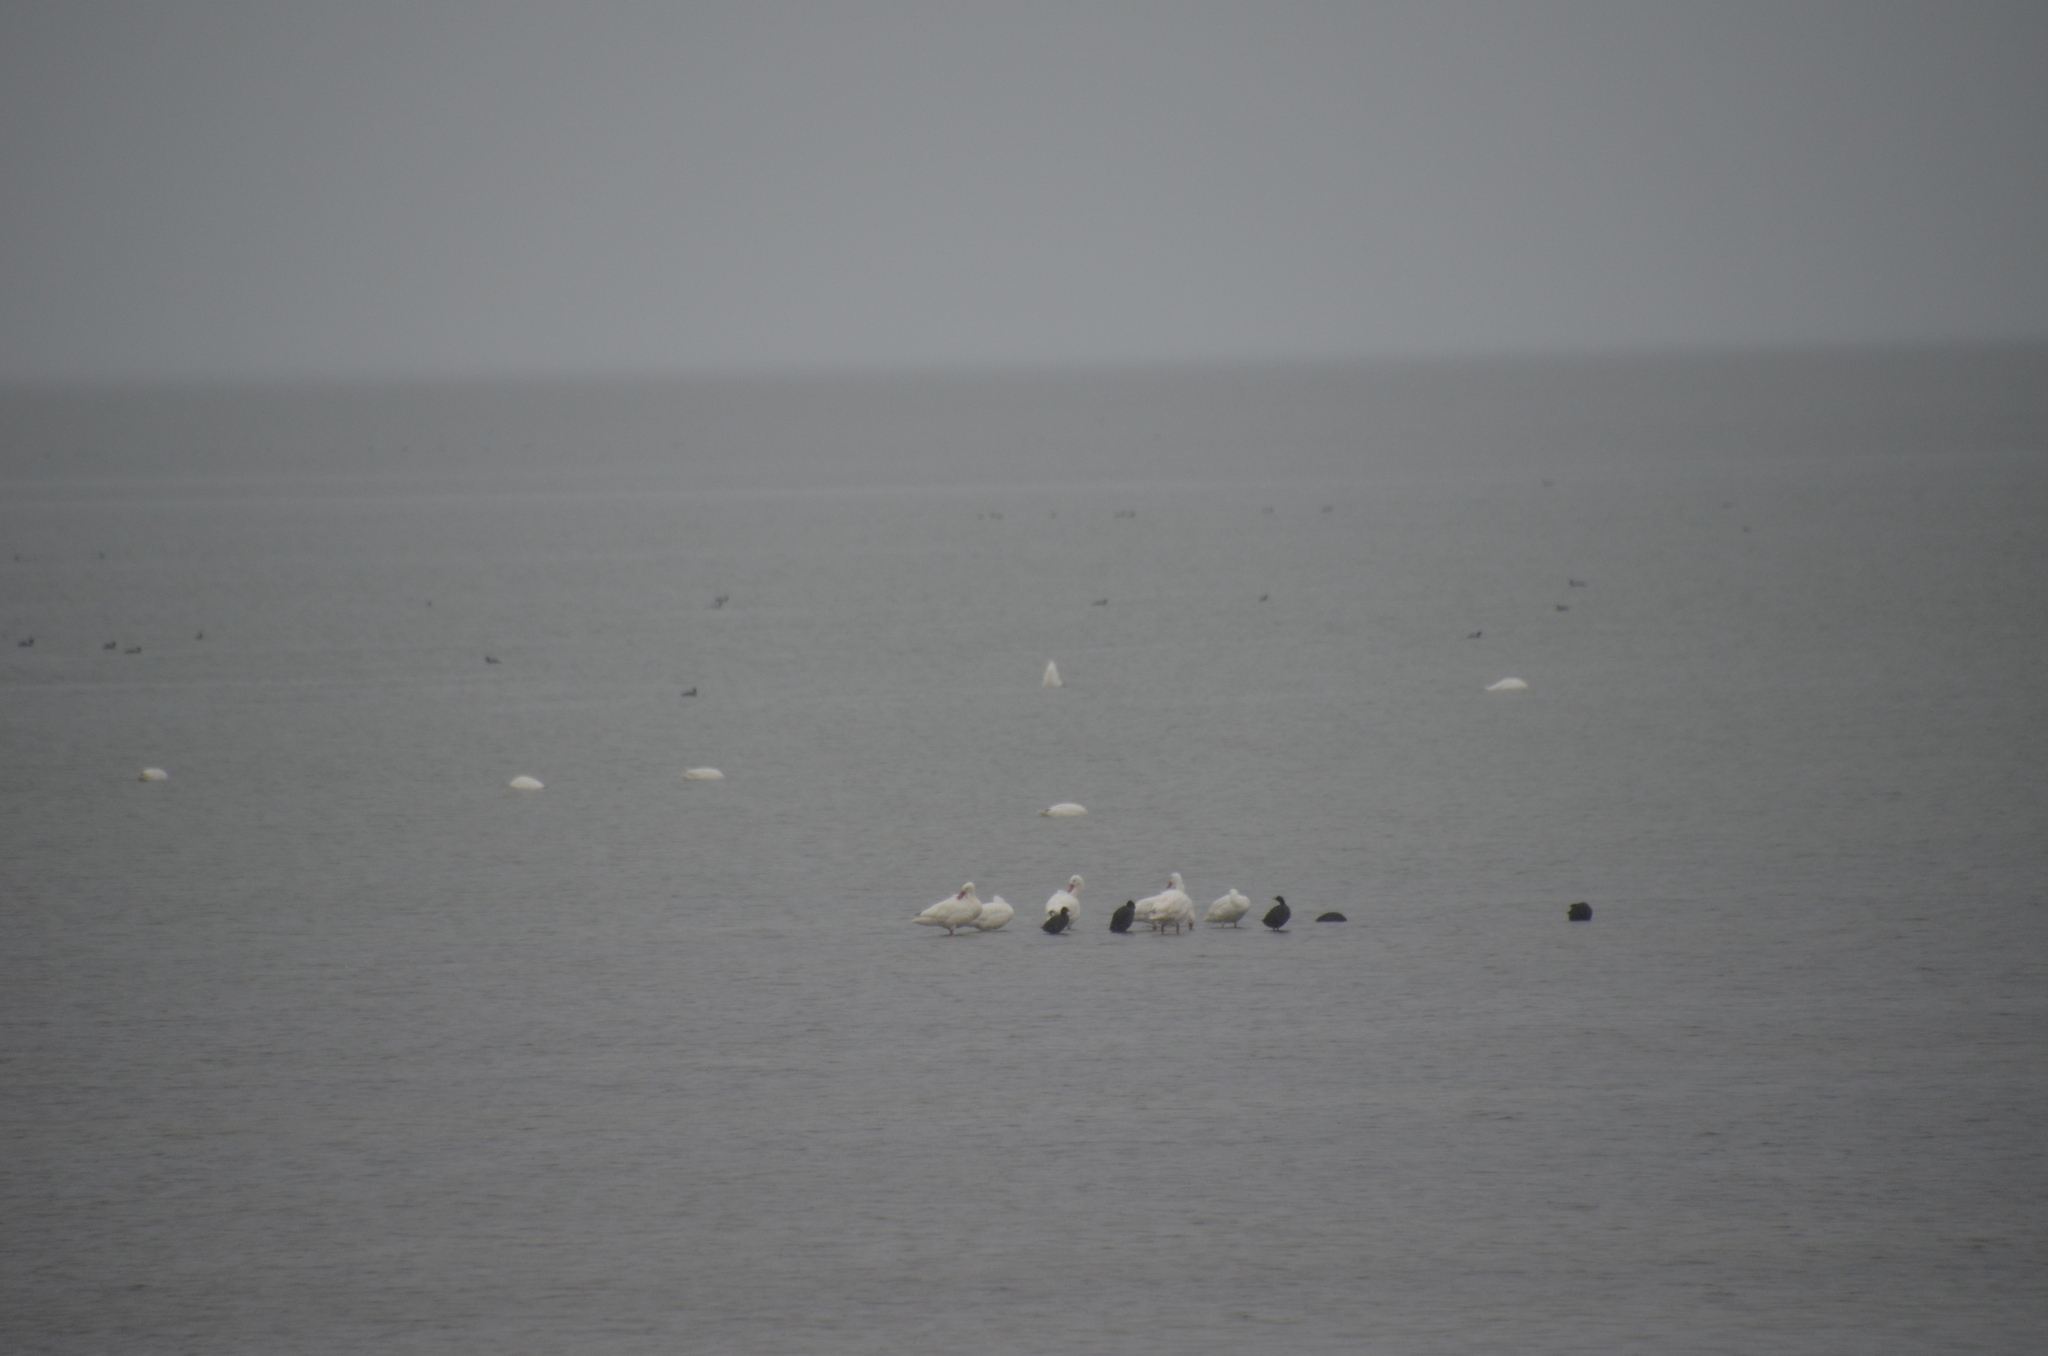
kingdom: Animalia
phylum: Chordata
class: Aves
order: Anseriformes
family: Anatidae
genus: Coscoroba
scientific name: Coscoroba coscoroba
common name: Coscoroba swan
